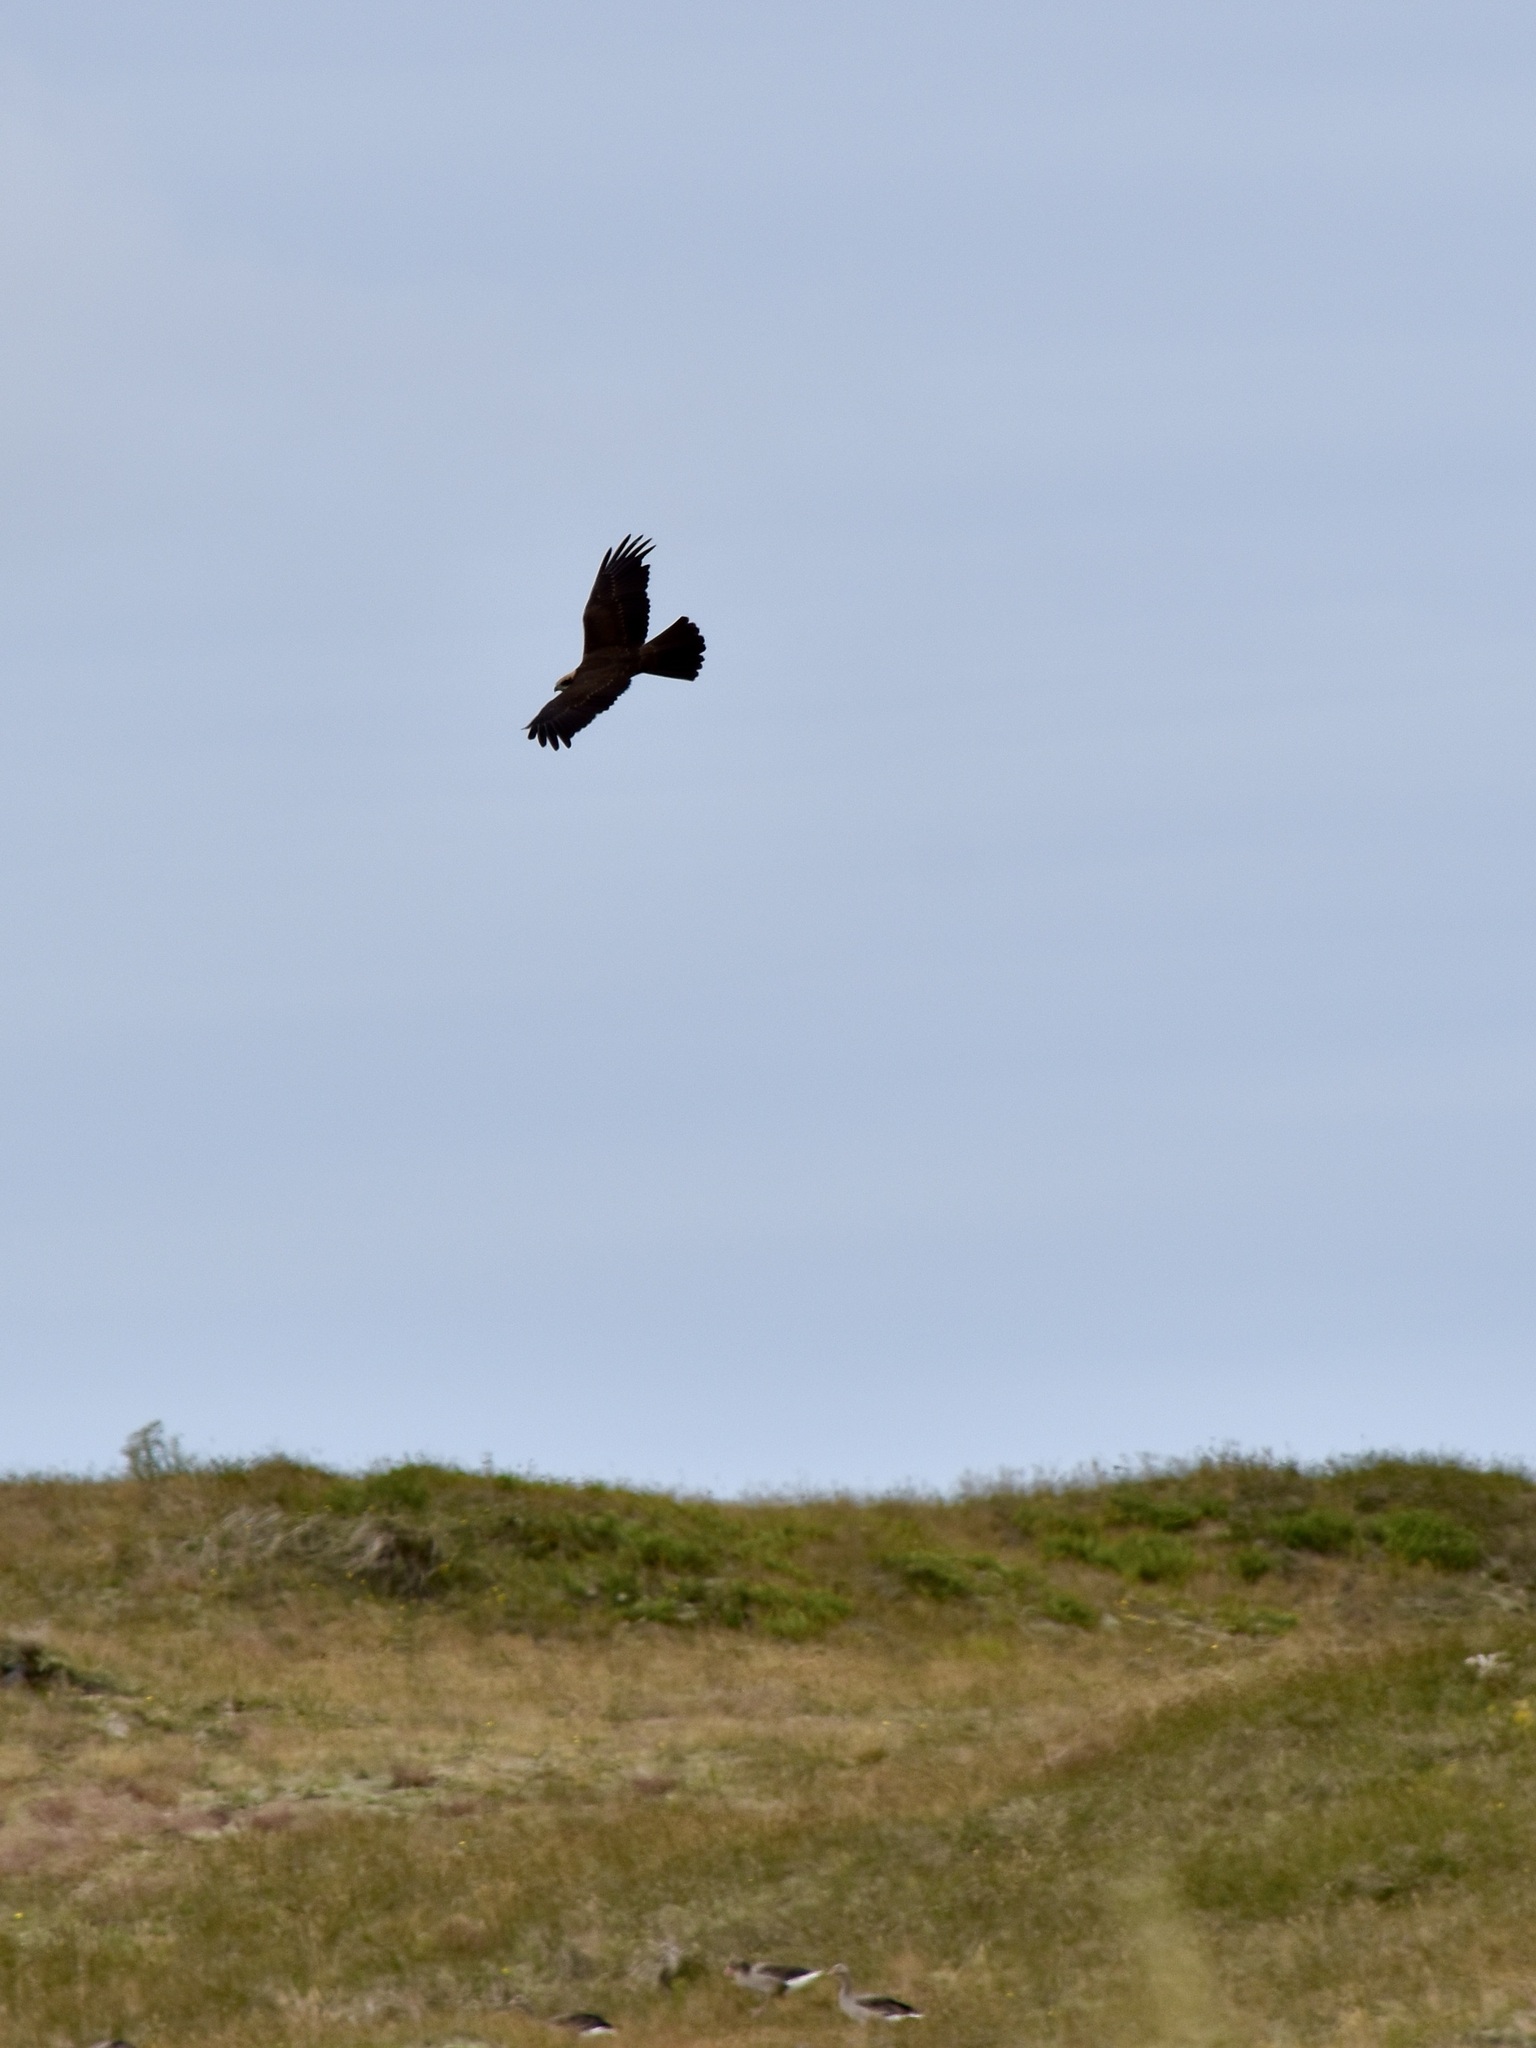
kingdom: Animalia
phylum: Chordata
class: Aves
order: Accipitriformes
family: Accipitridae
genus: Circus
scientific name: Circus aeruginosus
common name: Western marsh harrier
